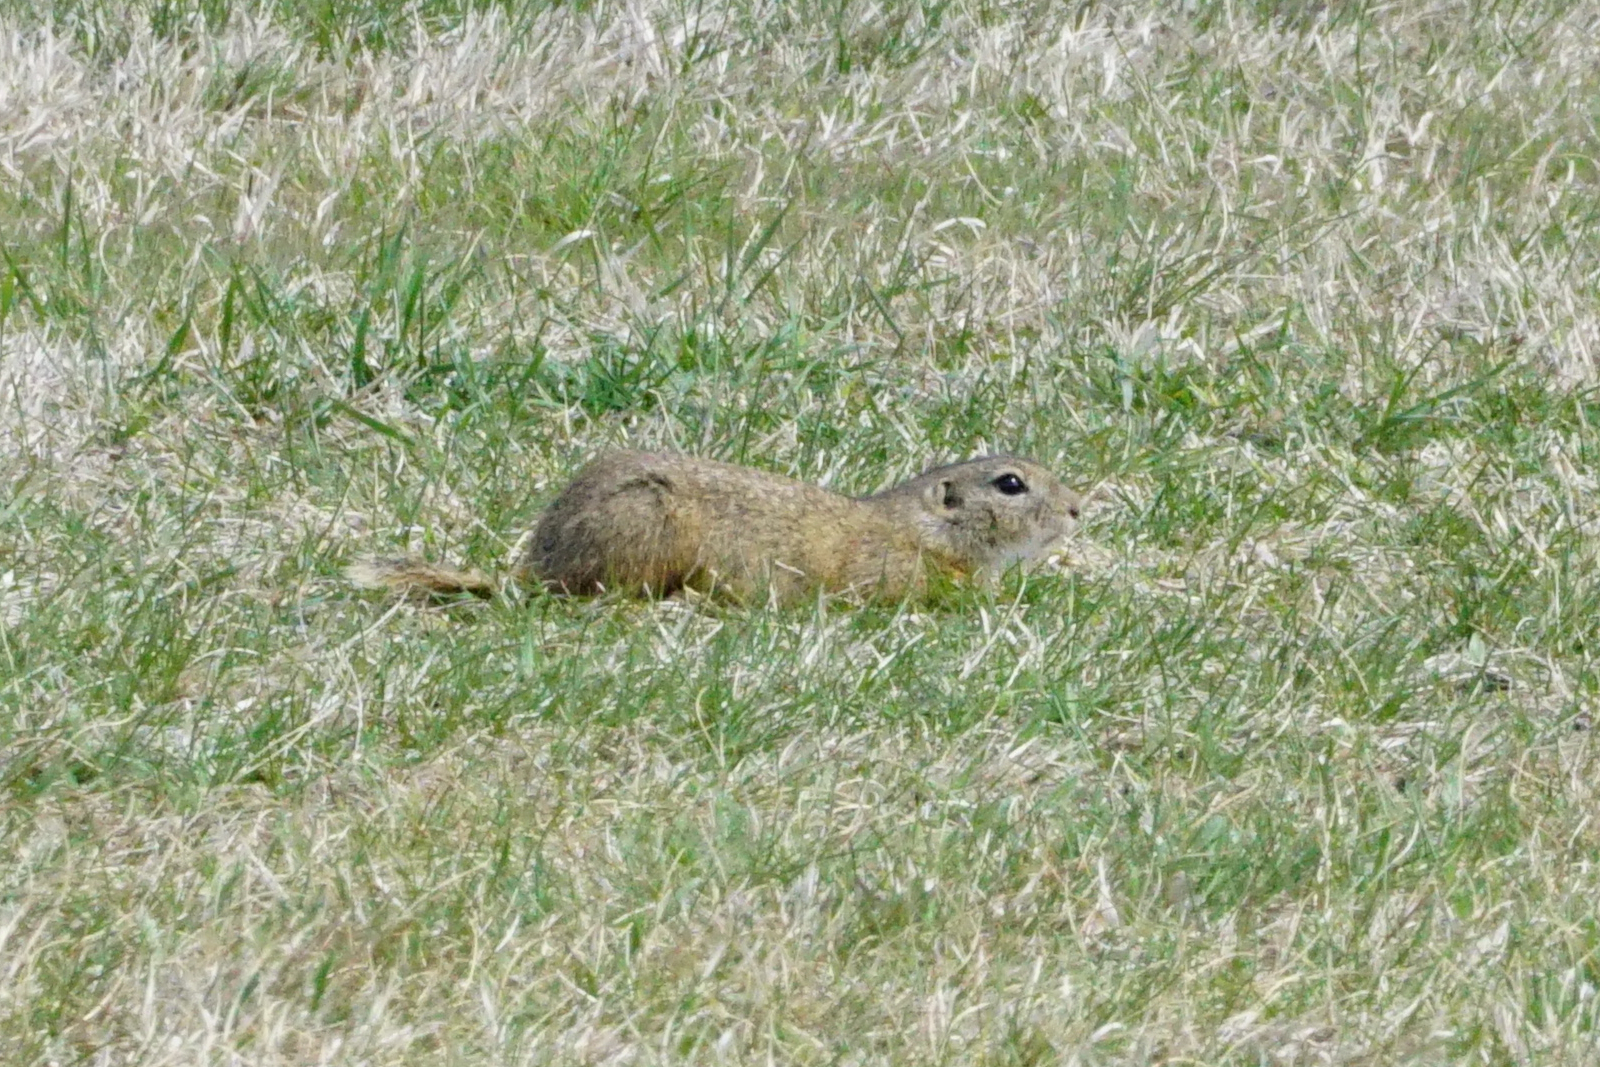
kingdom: Animalia
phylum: Chordata
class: Mammalia
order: Rodentia
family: Sciuridae
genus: Spermophilus
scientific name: Spermophilus citellus
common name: European ground squirrel
